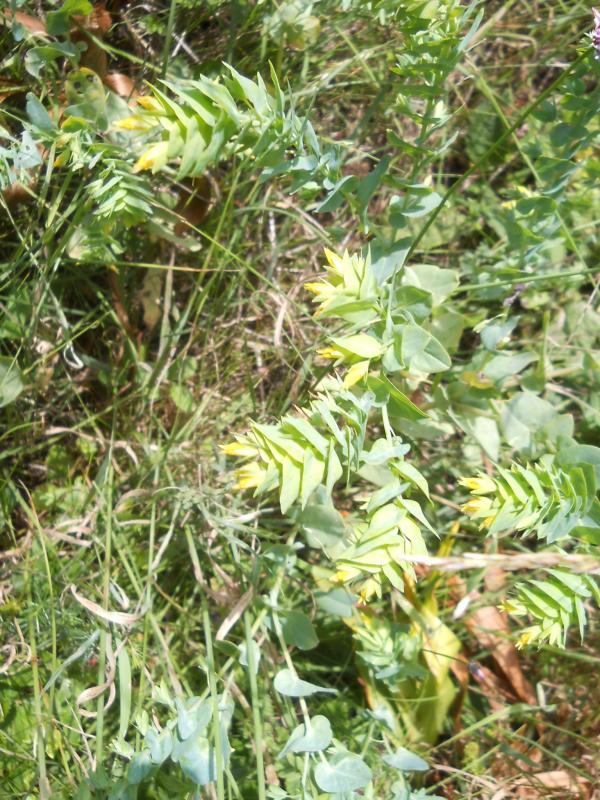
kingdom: Plantae
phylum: Tracheophyta
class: Magnoliopsida
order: Boraginales
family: Boraginaceae
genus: Cerinthe
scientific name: Cerinthe minor
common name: Lesser honeywort
